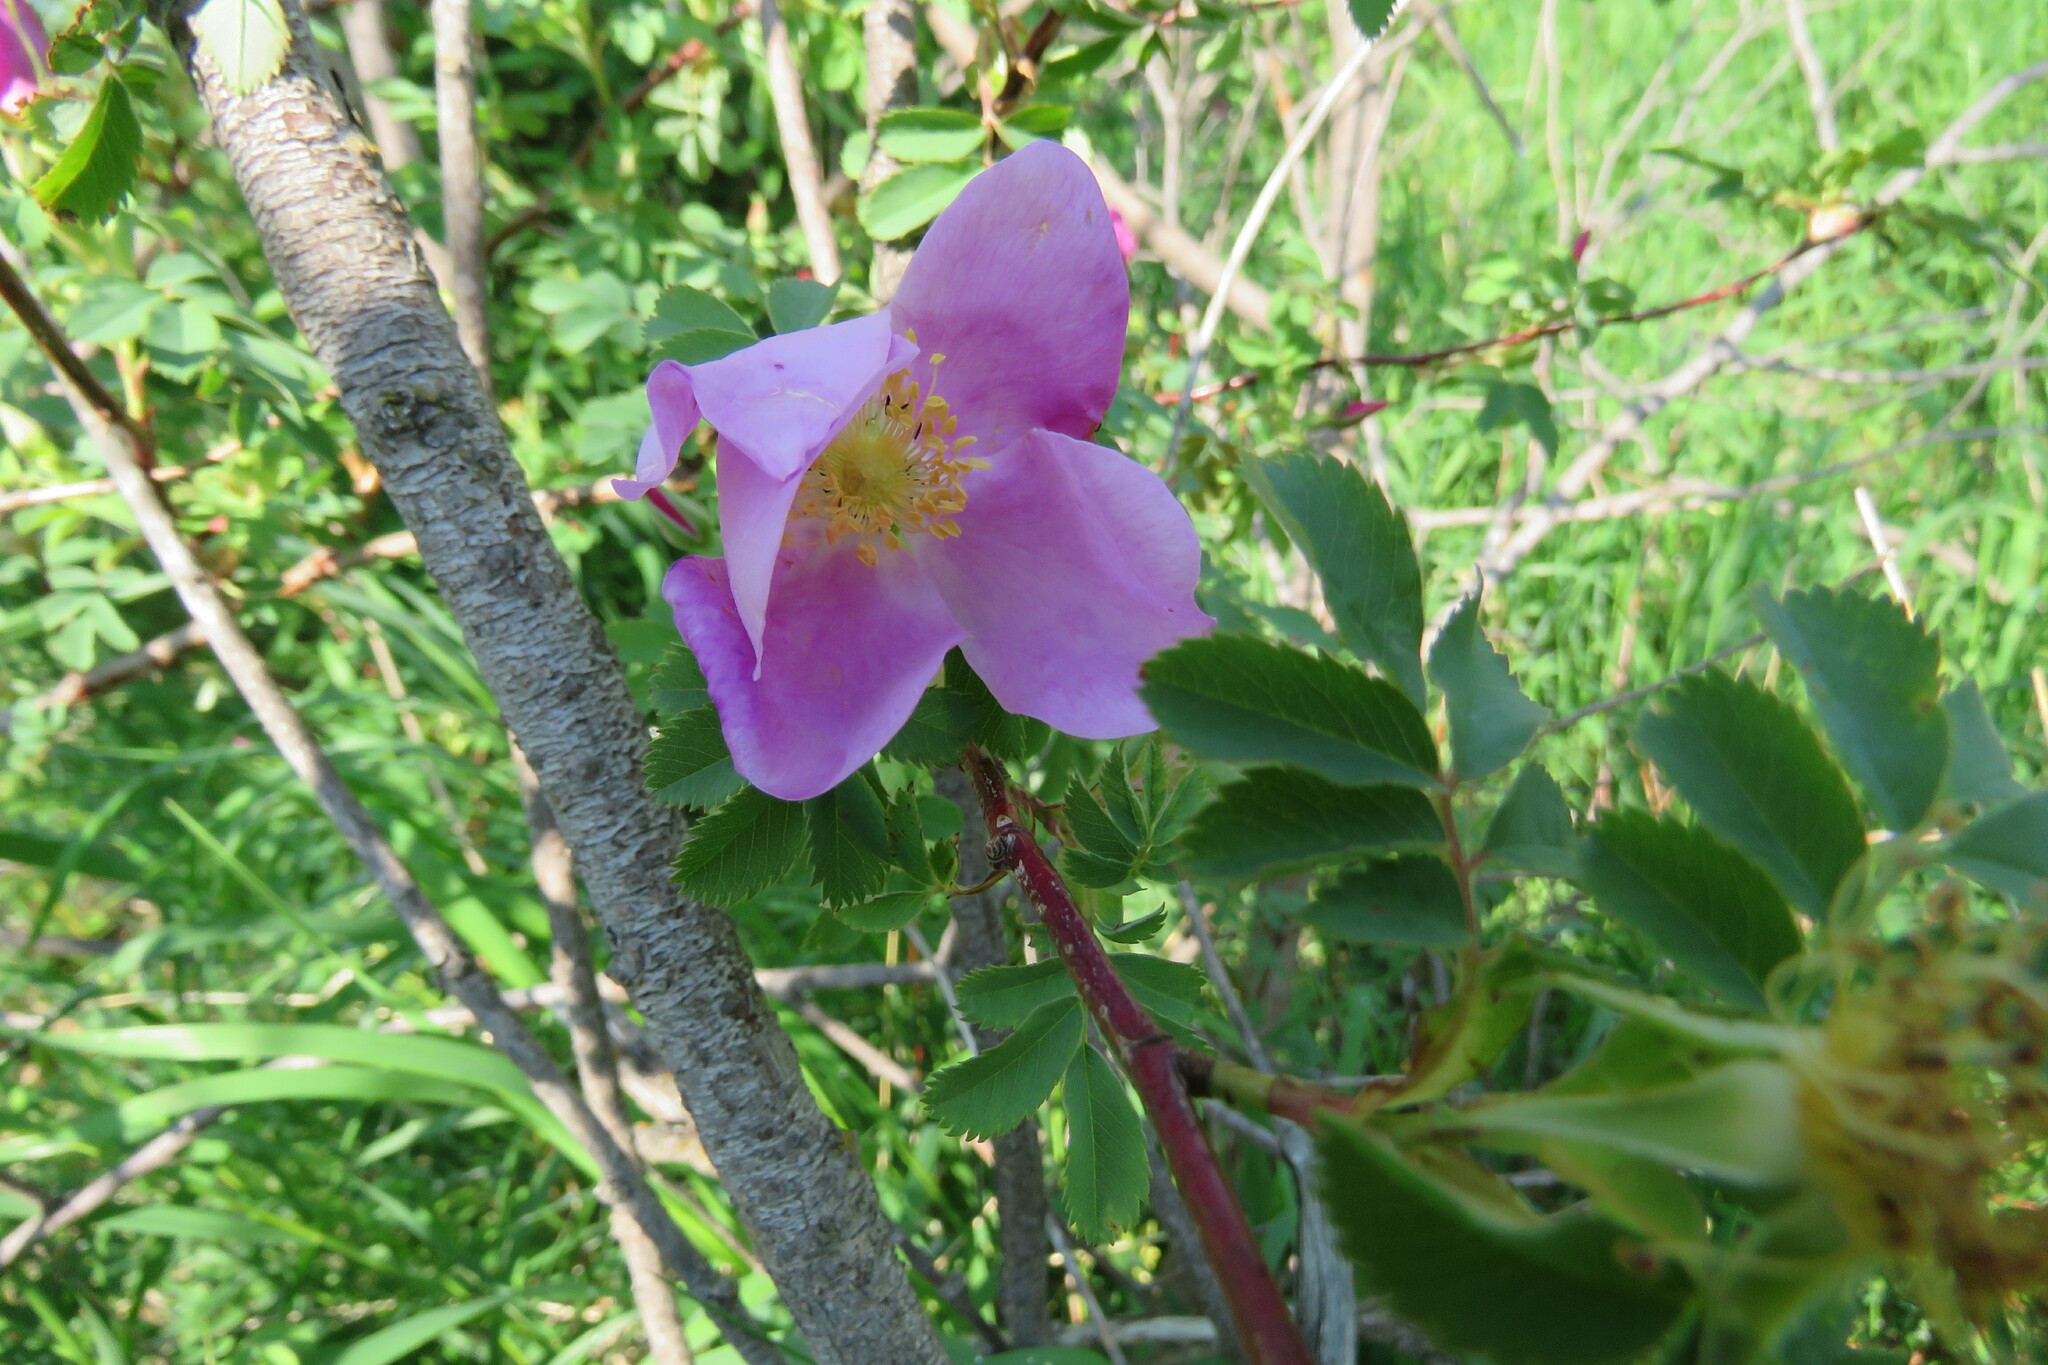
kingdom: Plantae
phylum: Tracheophyta
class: Magnoliopsida
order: Rosales
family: Rosaceae
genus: Rosa
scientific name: Rosa woodsii
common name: Woods's rose
